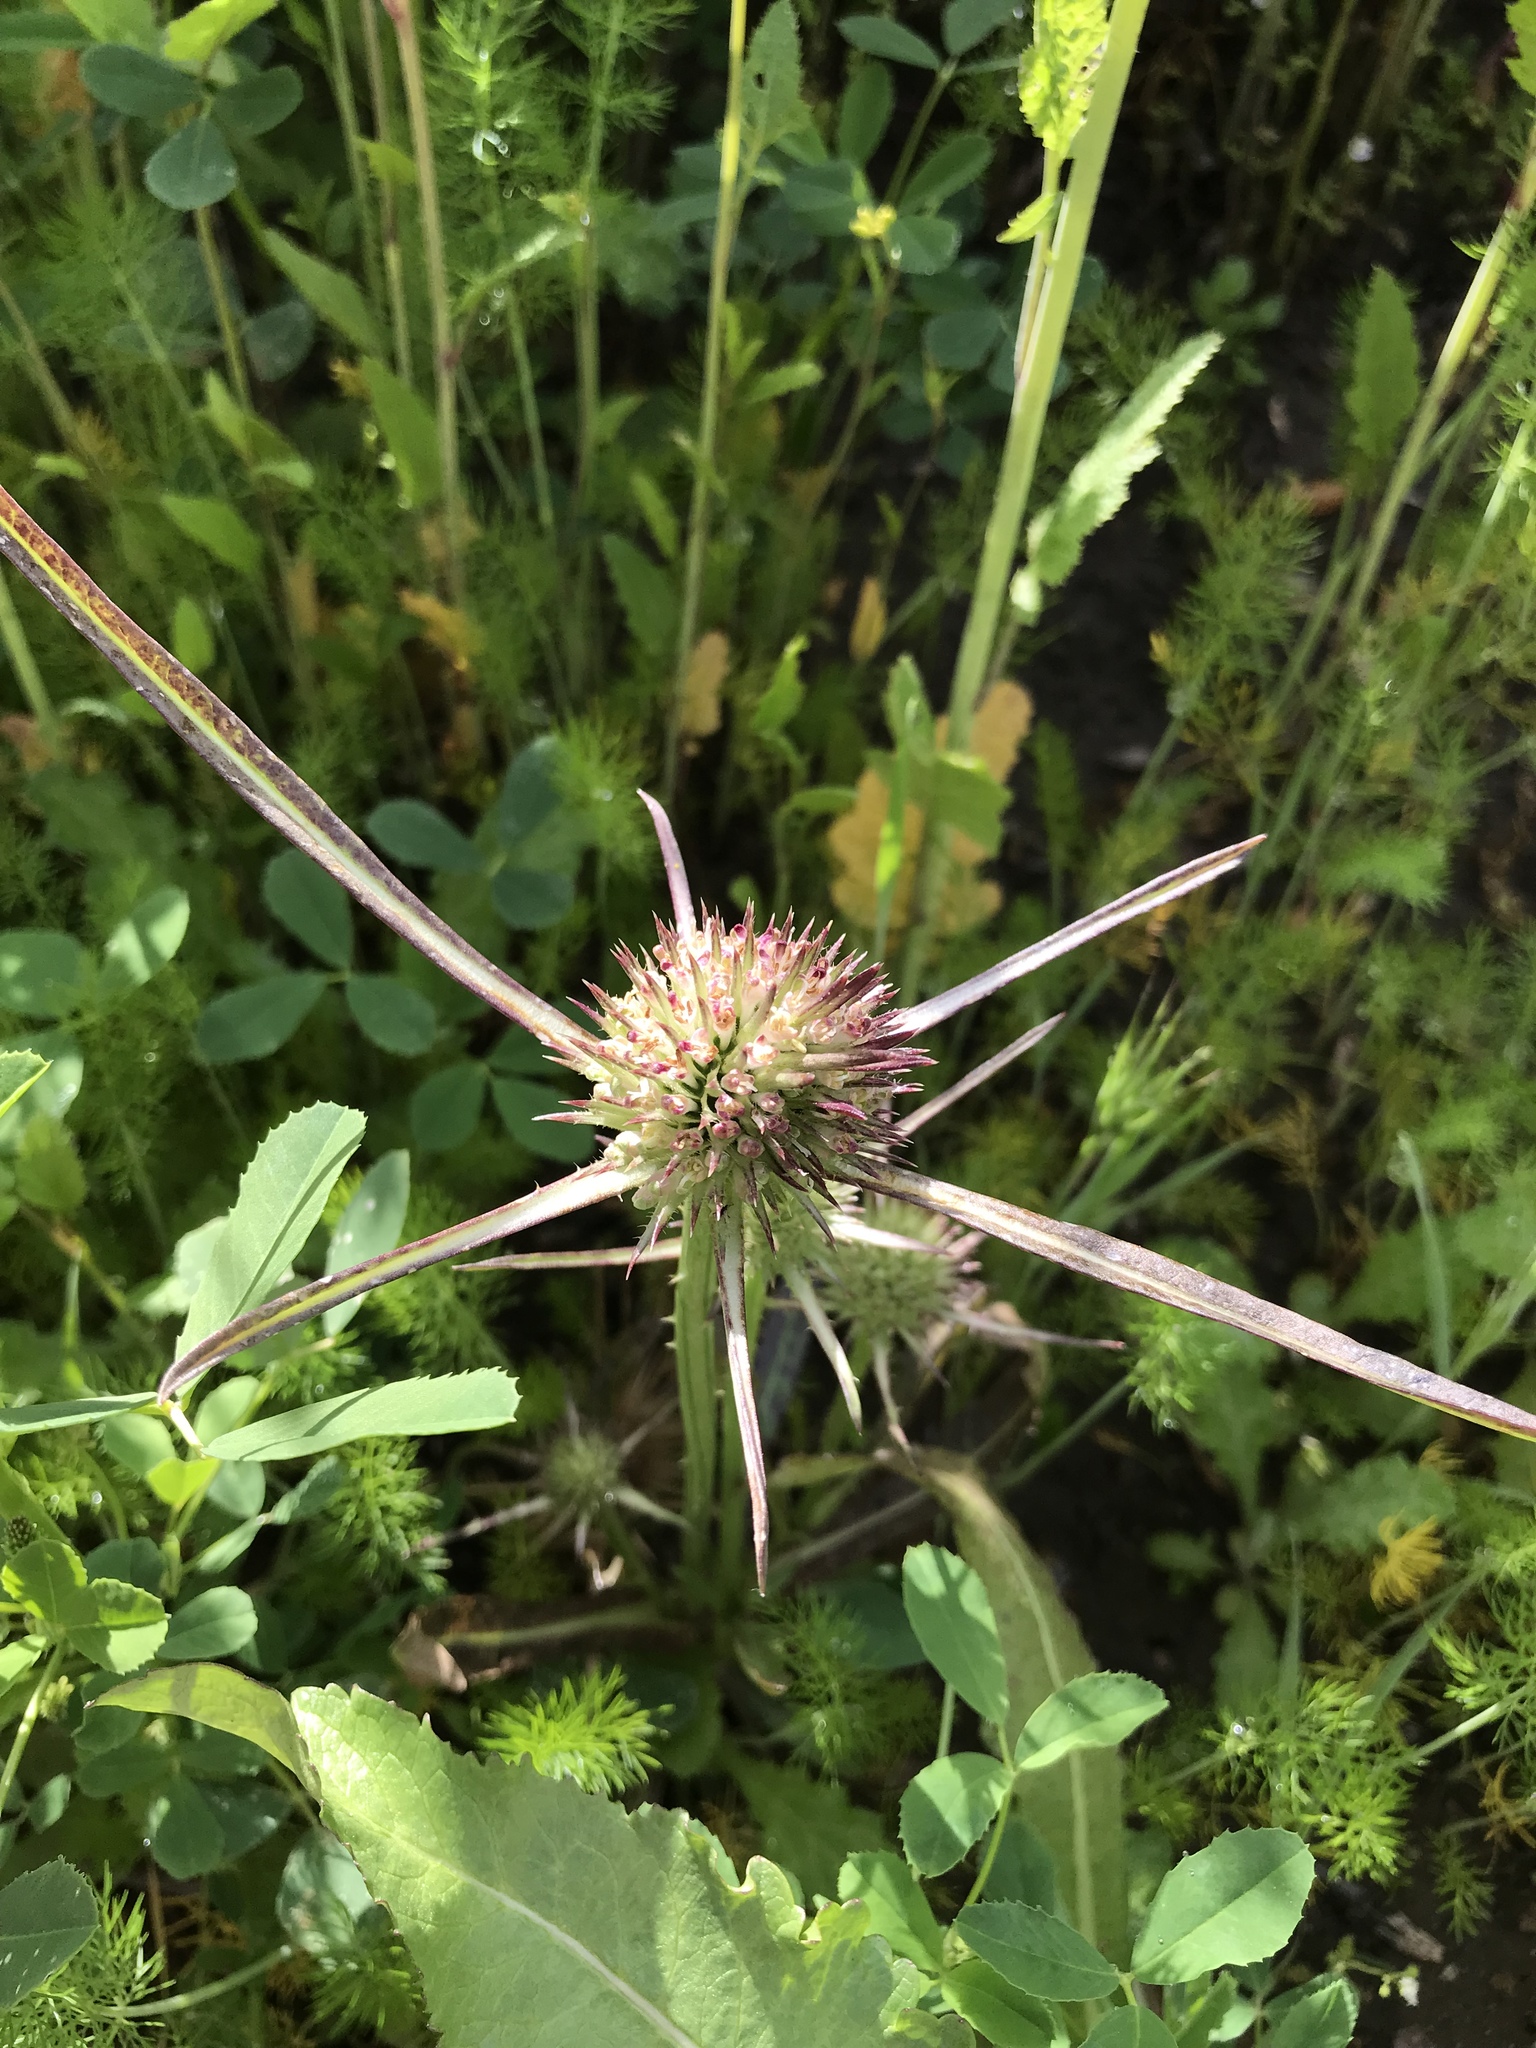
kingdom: Plantae
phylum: Tracheophyta
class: Magnoliopsida
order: Dipsacales
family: Caprifoliaceae
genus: Dipsacus
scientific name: Dipsacus fullonum
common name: Teasel
